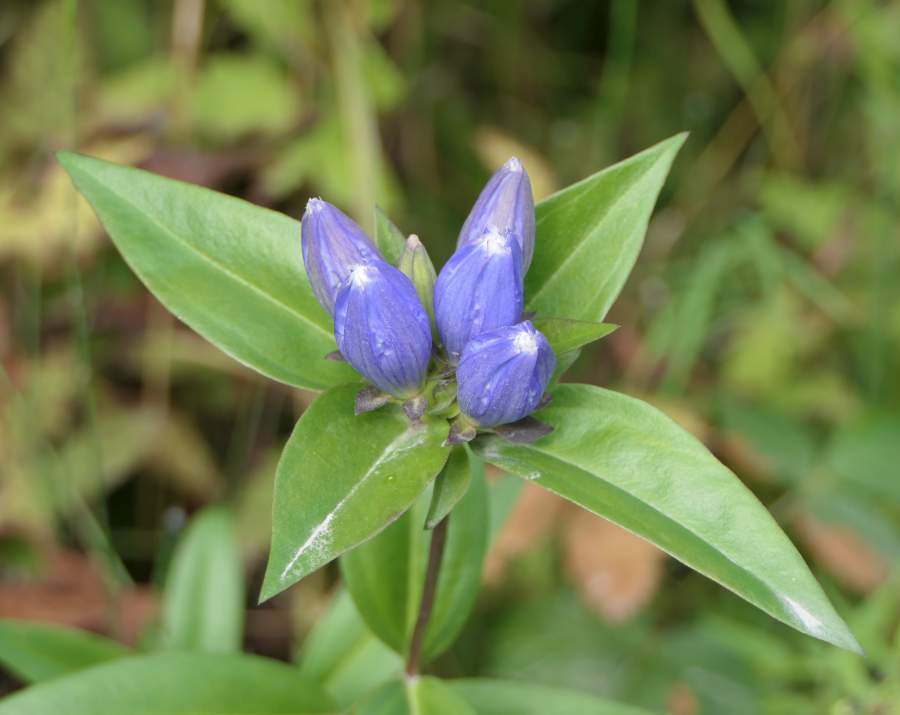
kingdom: Plantae
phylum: Tracheophyta
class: Magnoliopsida
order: Gentianales
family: Gentianaceae
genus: Gentiana
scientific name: Gentiana andrewsii
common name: Bottle gentian
